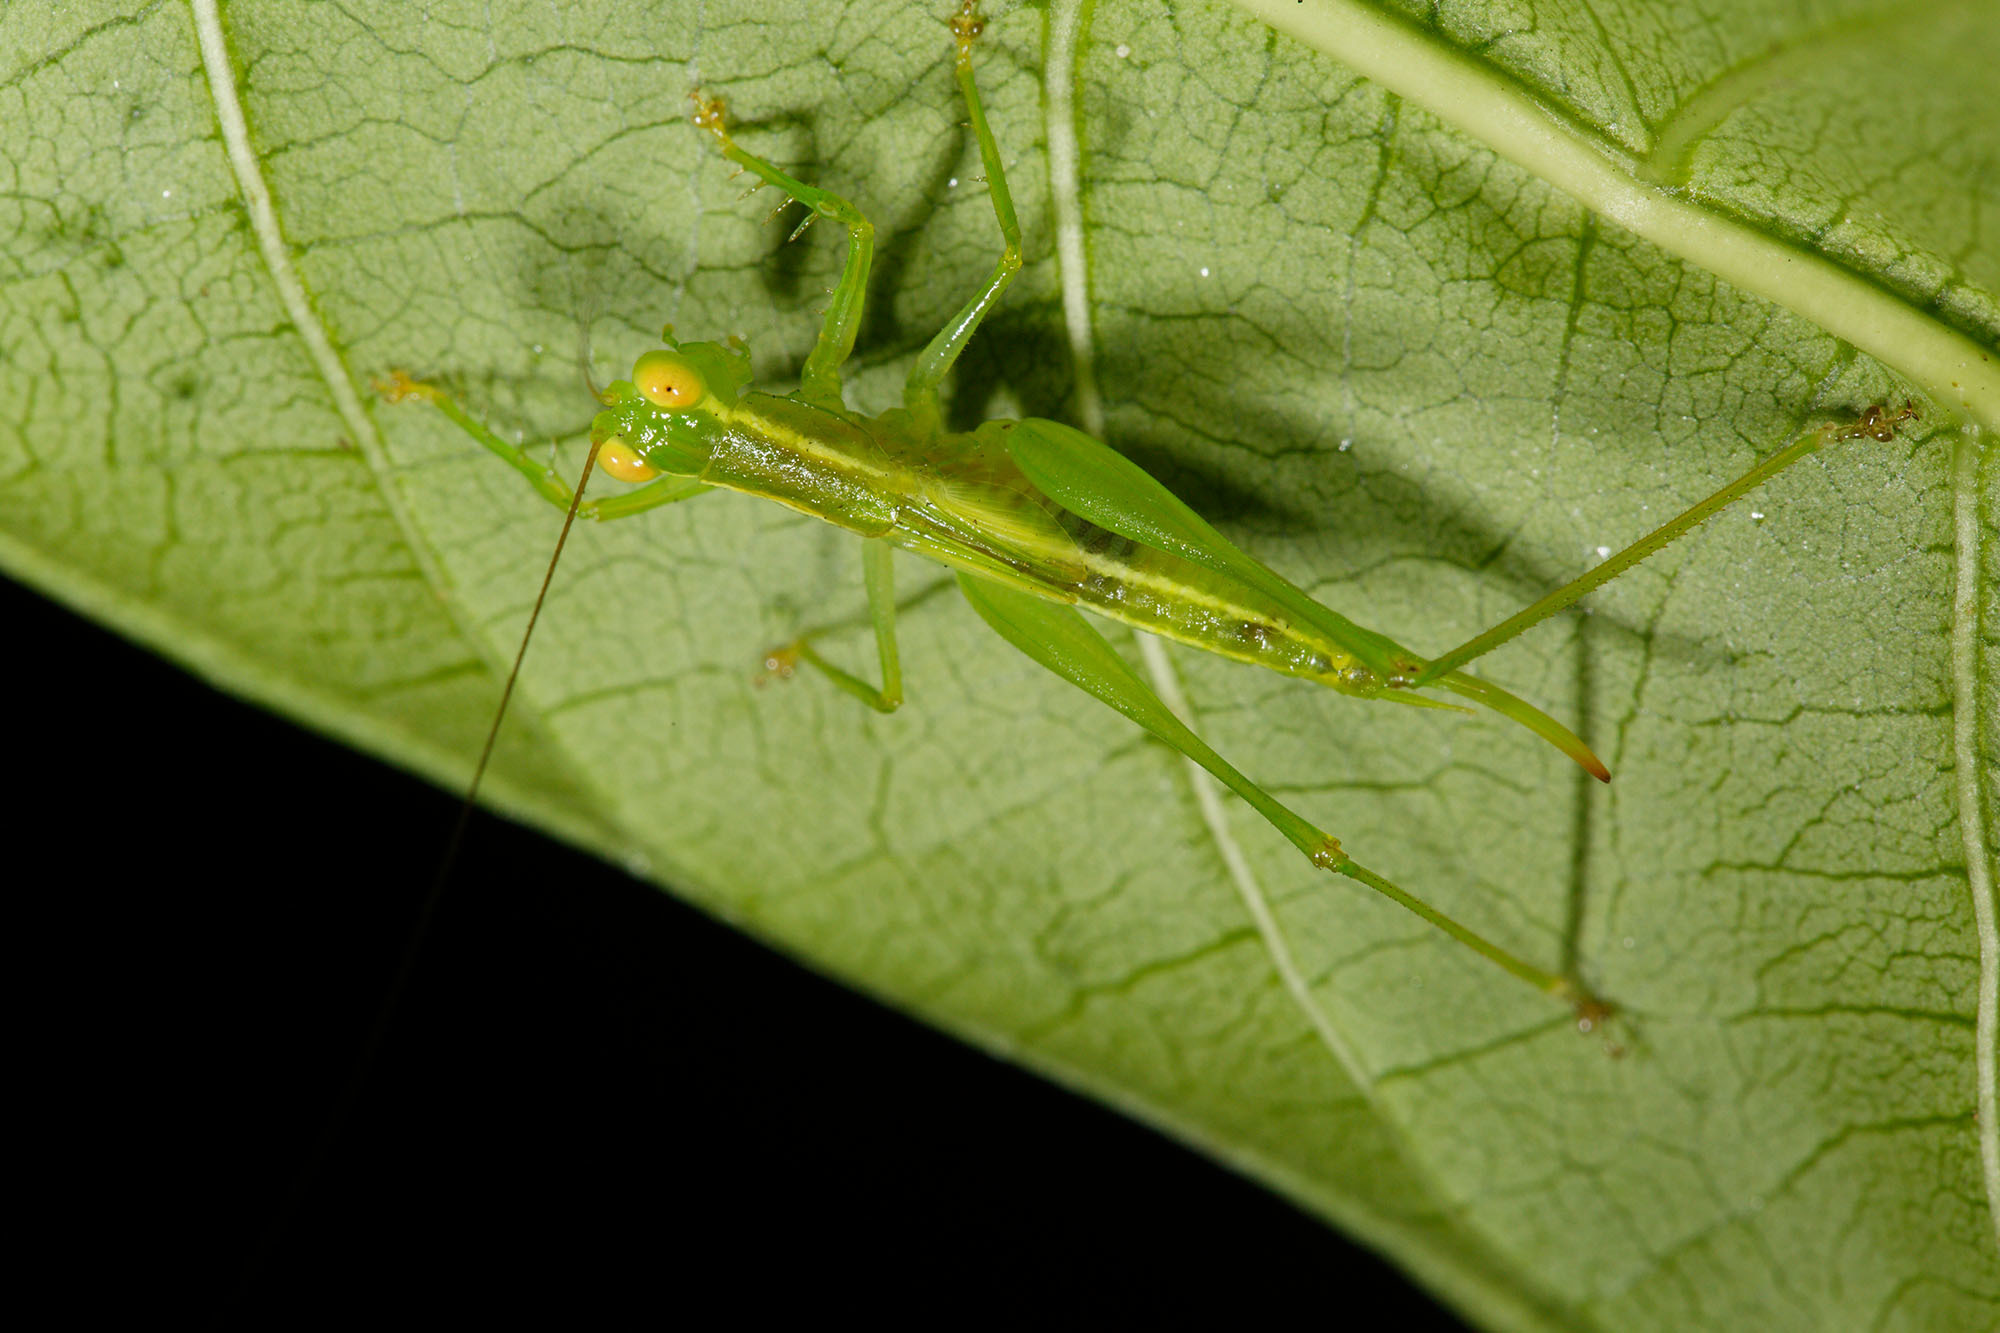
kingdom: Animalia
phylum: Arthropoda
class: Insecta
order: Orthoptera
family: Tettigoniidae
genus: Austrophlugis
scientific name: Austrophlugis malidupa
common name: Malidupa swayer
